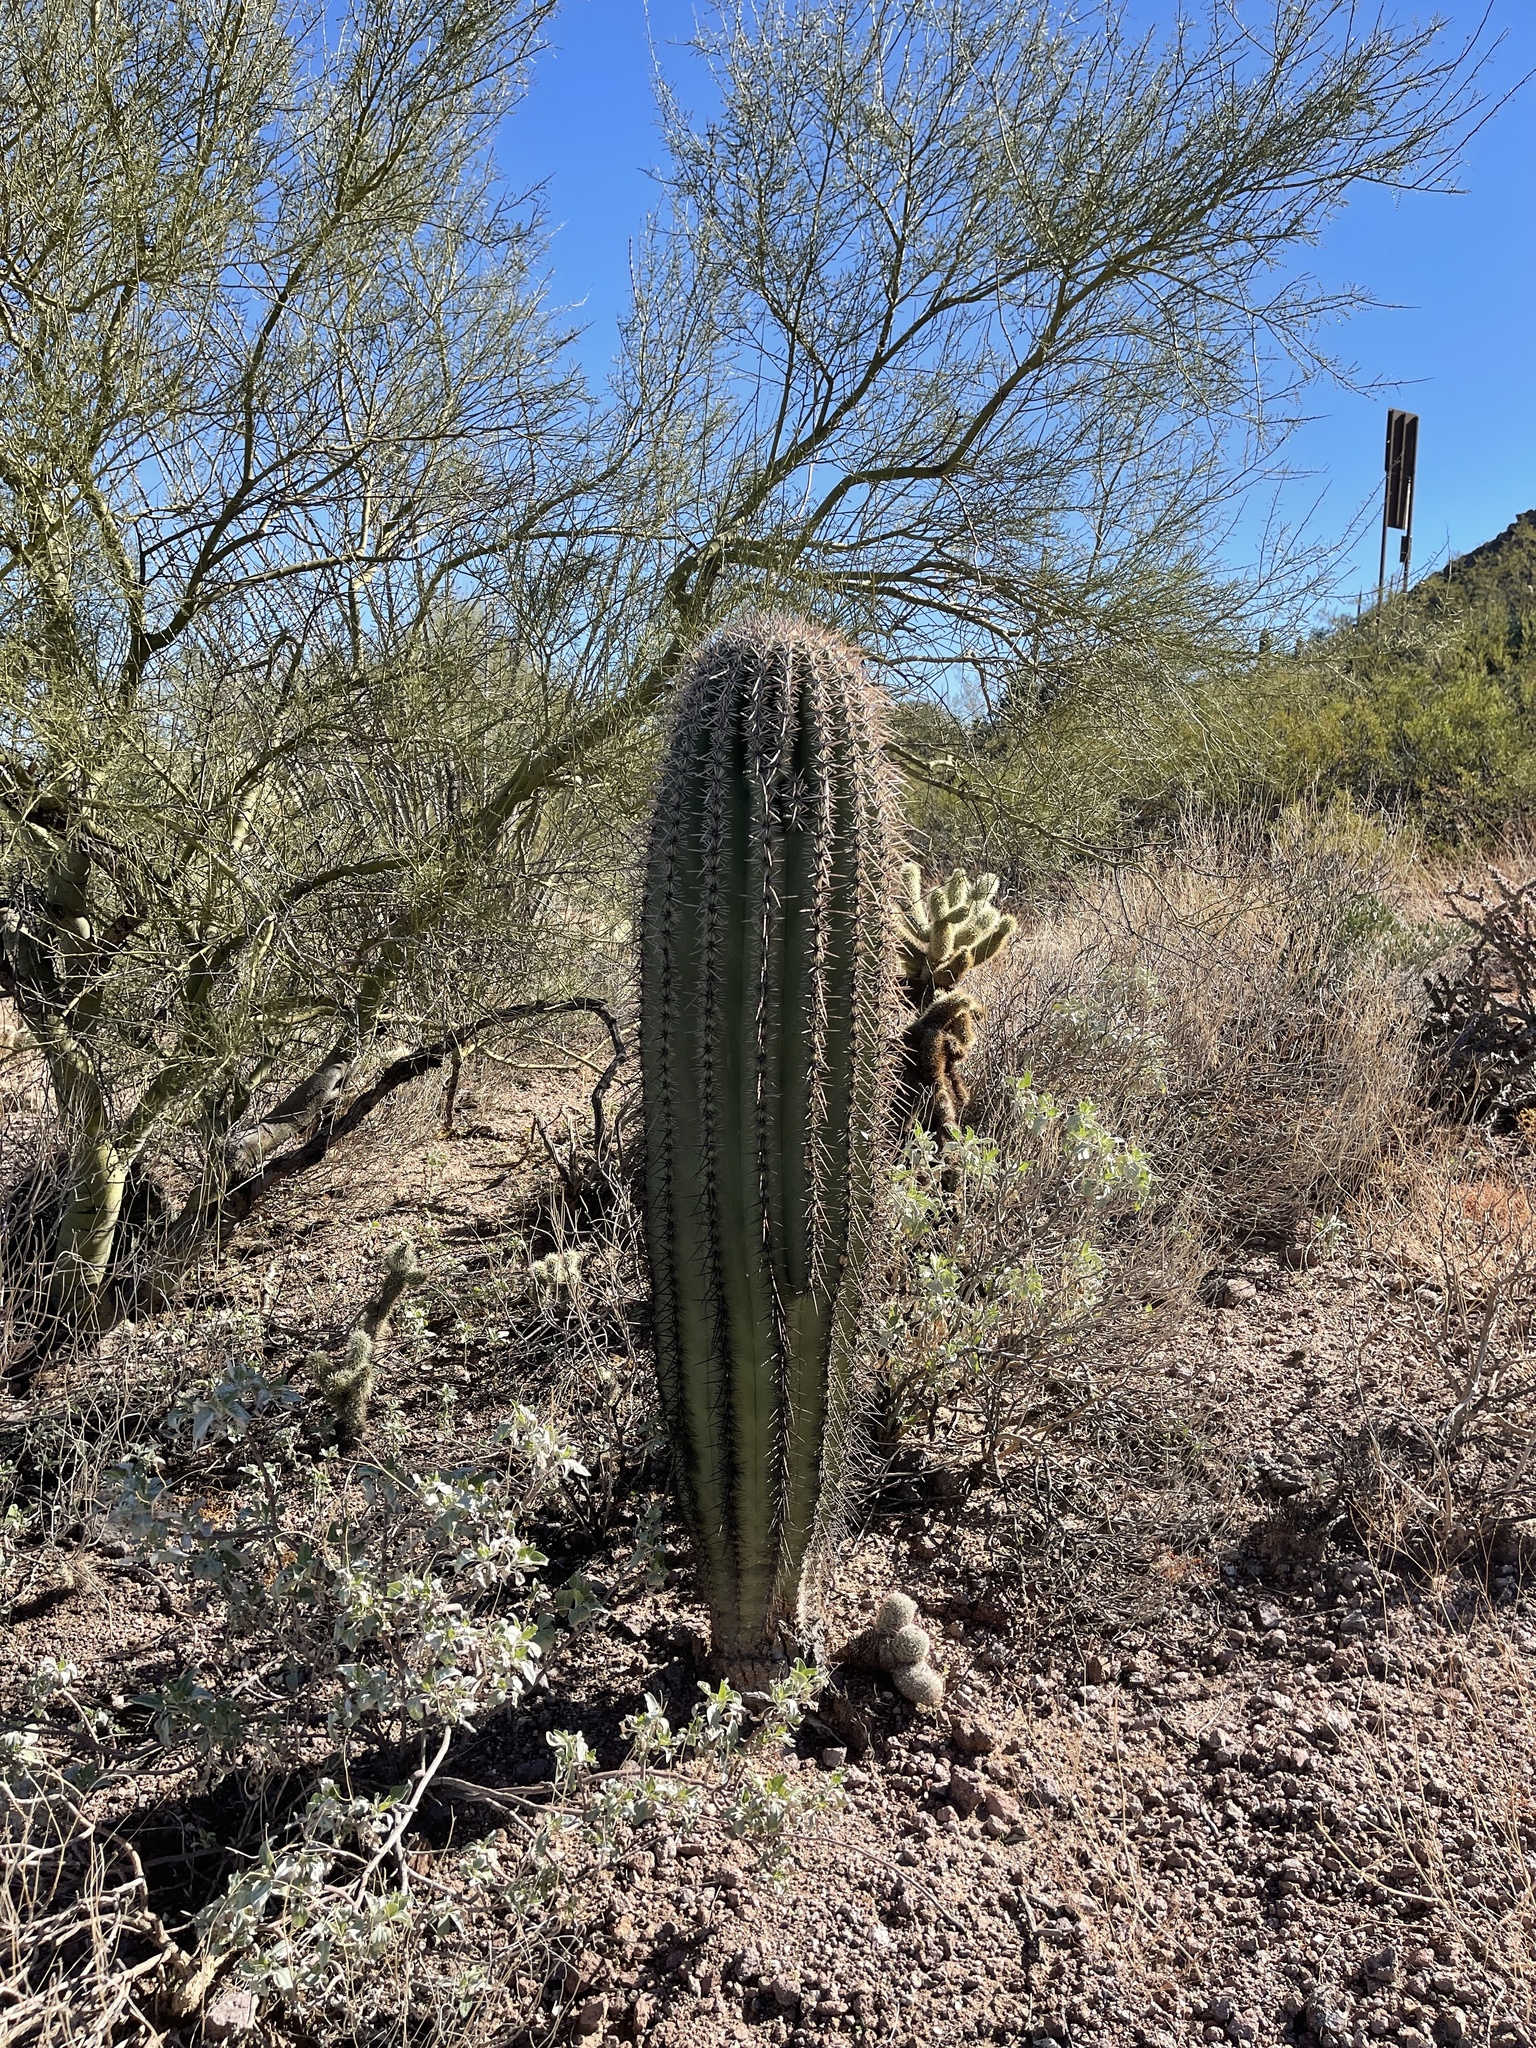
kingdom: Plantae
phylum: Tracheophyta
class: Magnoliopsida
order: Caryophyllales
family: Cactaceae
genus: Carnegiea
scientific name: Carnegiea gigantea
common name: Saguaro
